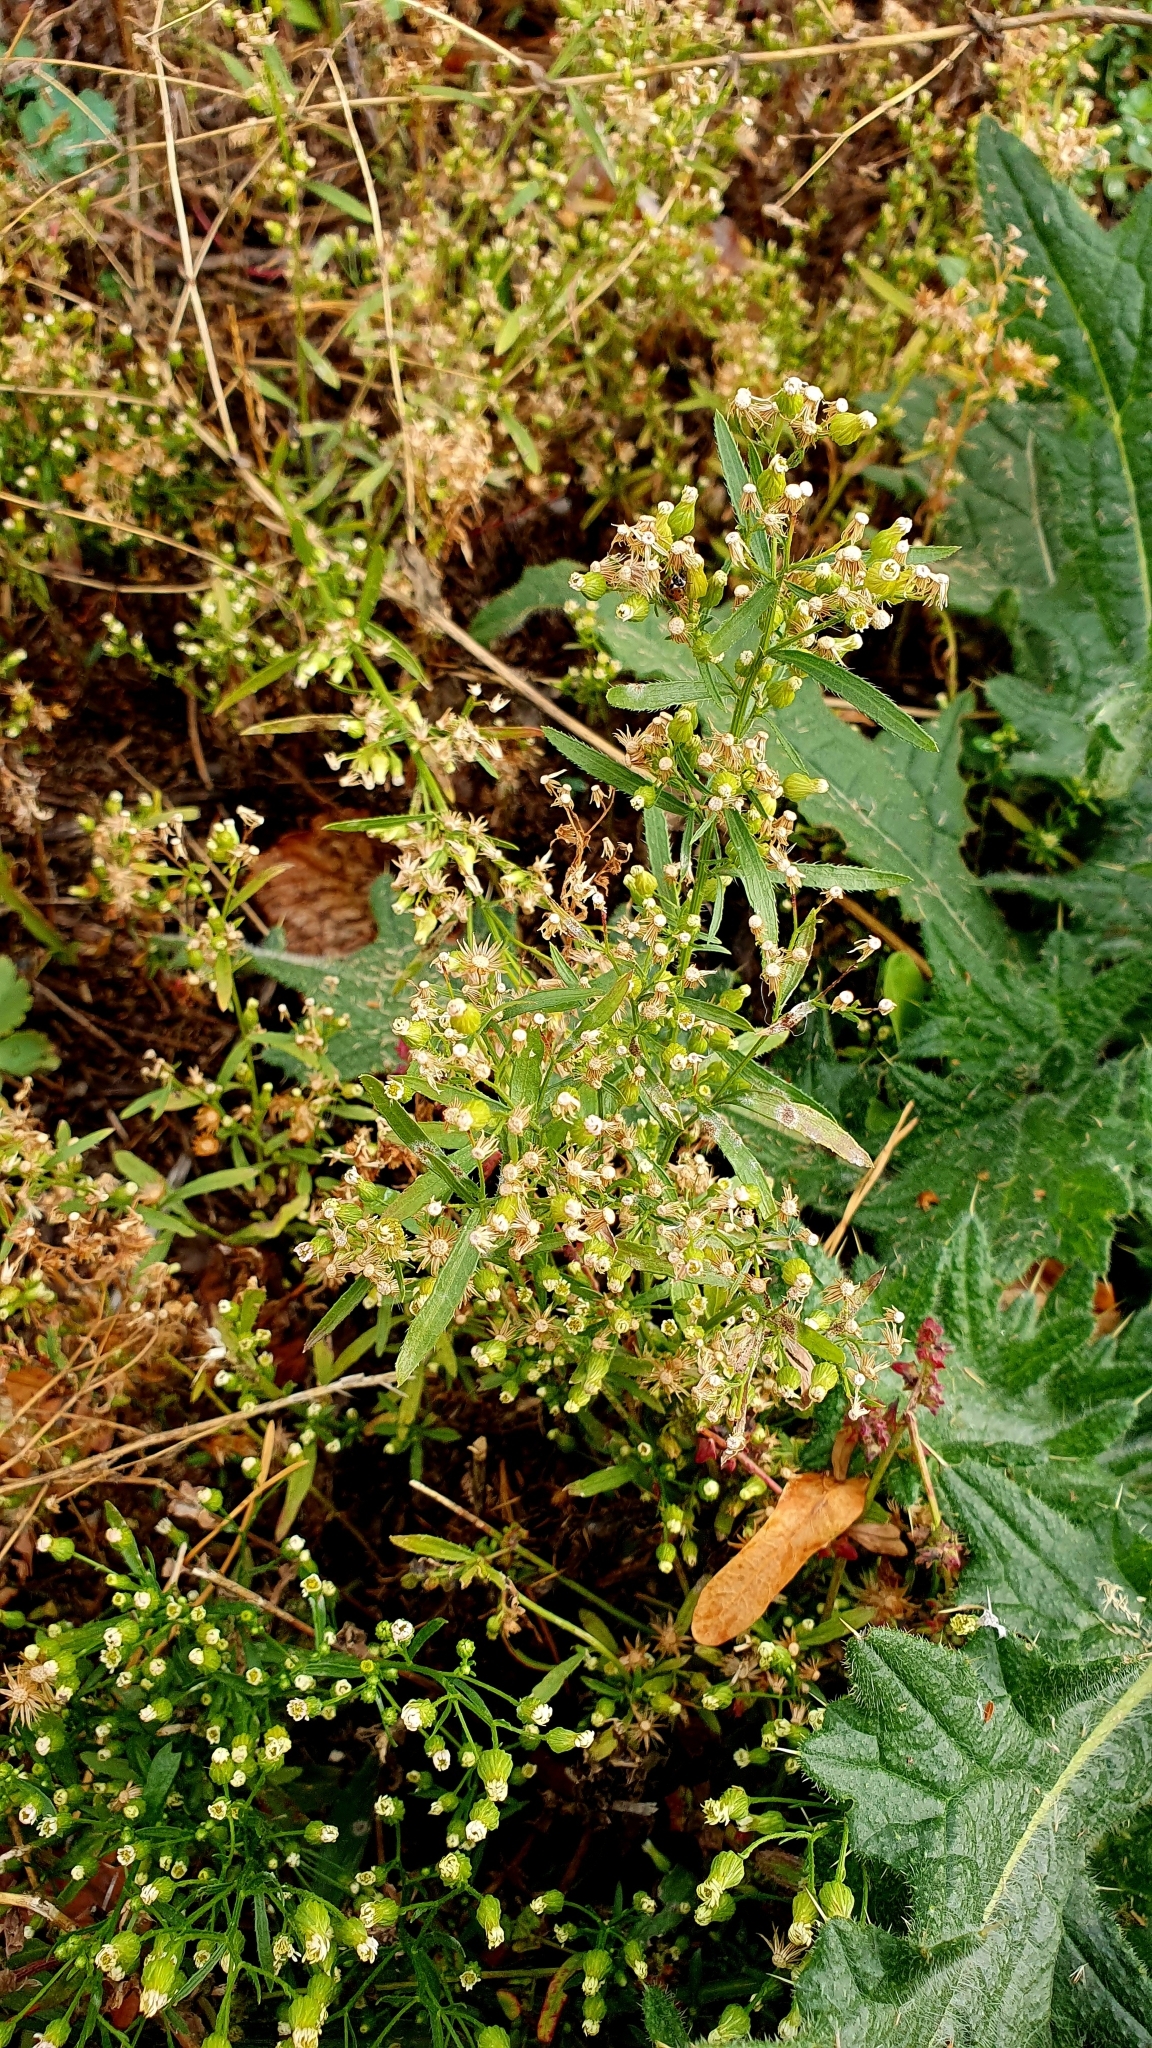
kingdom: Plantae
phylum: Tracheophyta
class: Magnoliopsida
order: Asterales
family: Asteraceae
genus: Erigeron
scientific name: Erigeron canadensis
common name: Canadian fleabane
